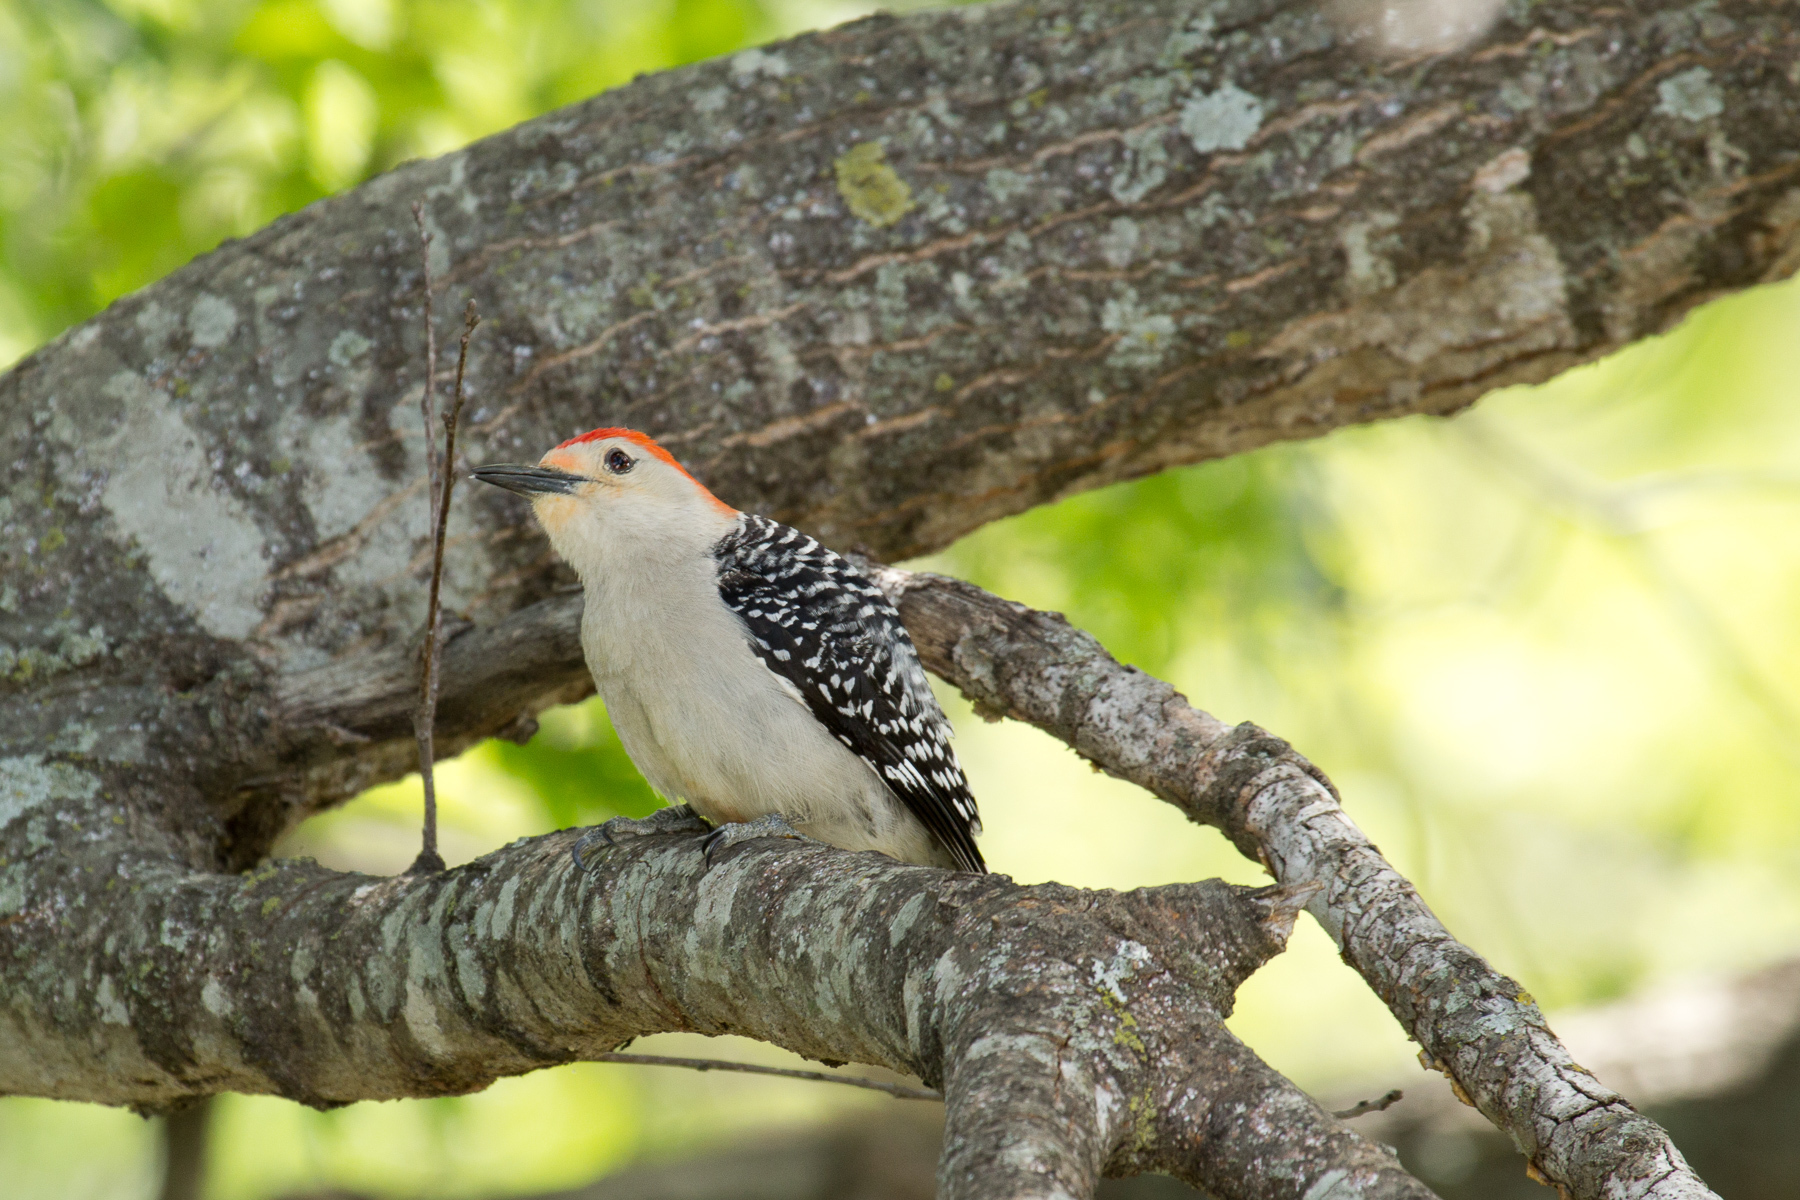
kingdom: Animalia
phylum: Chordata
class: Aves
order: Piciformes
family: Picidae
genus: Melanerpes
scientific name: Melanerpes carolinus
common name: Red-bellied woodpecker
